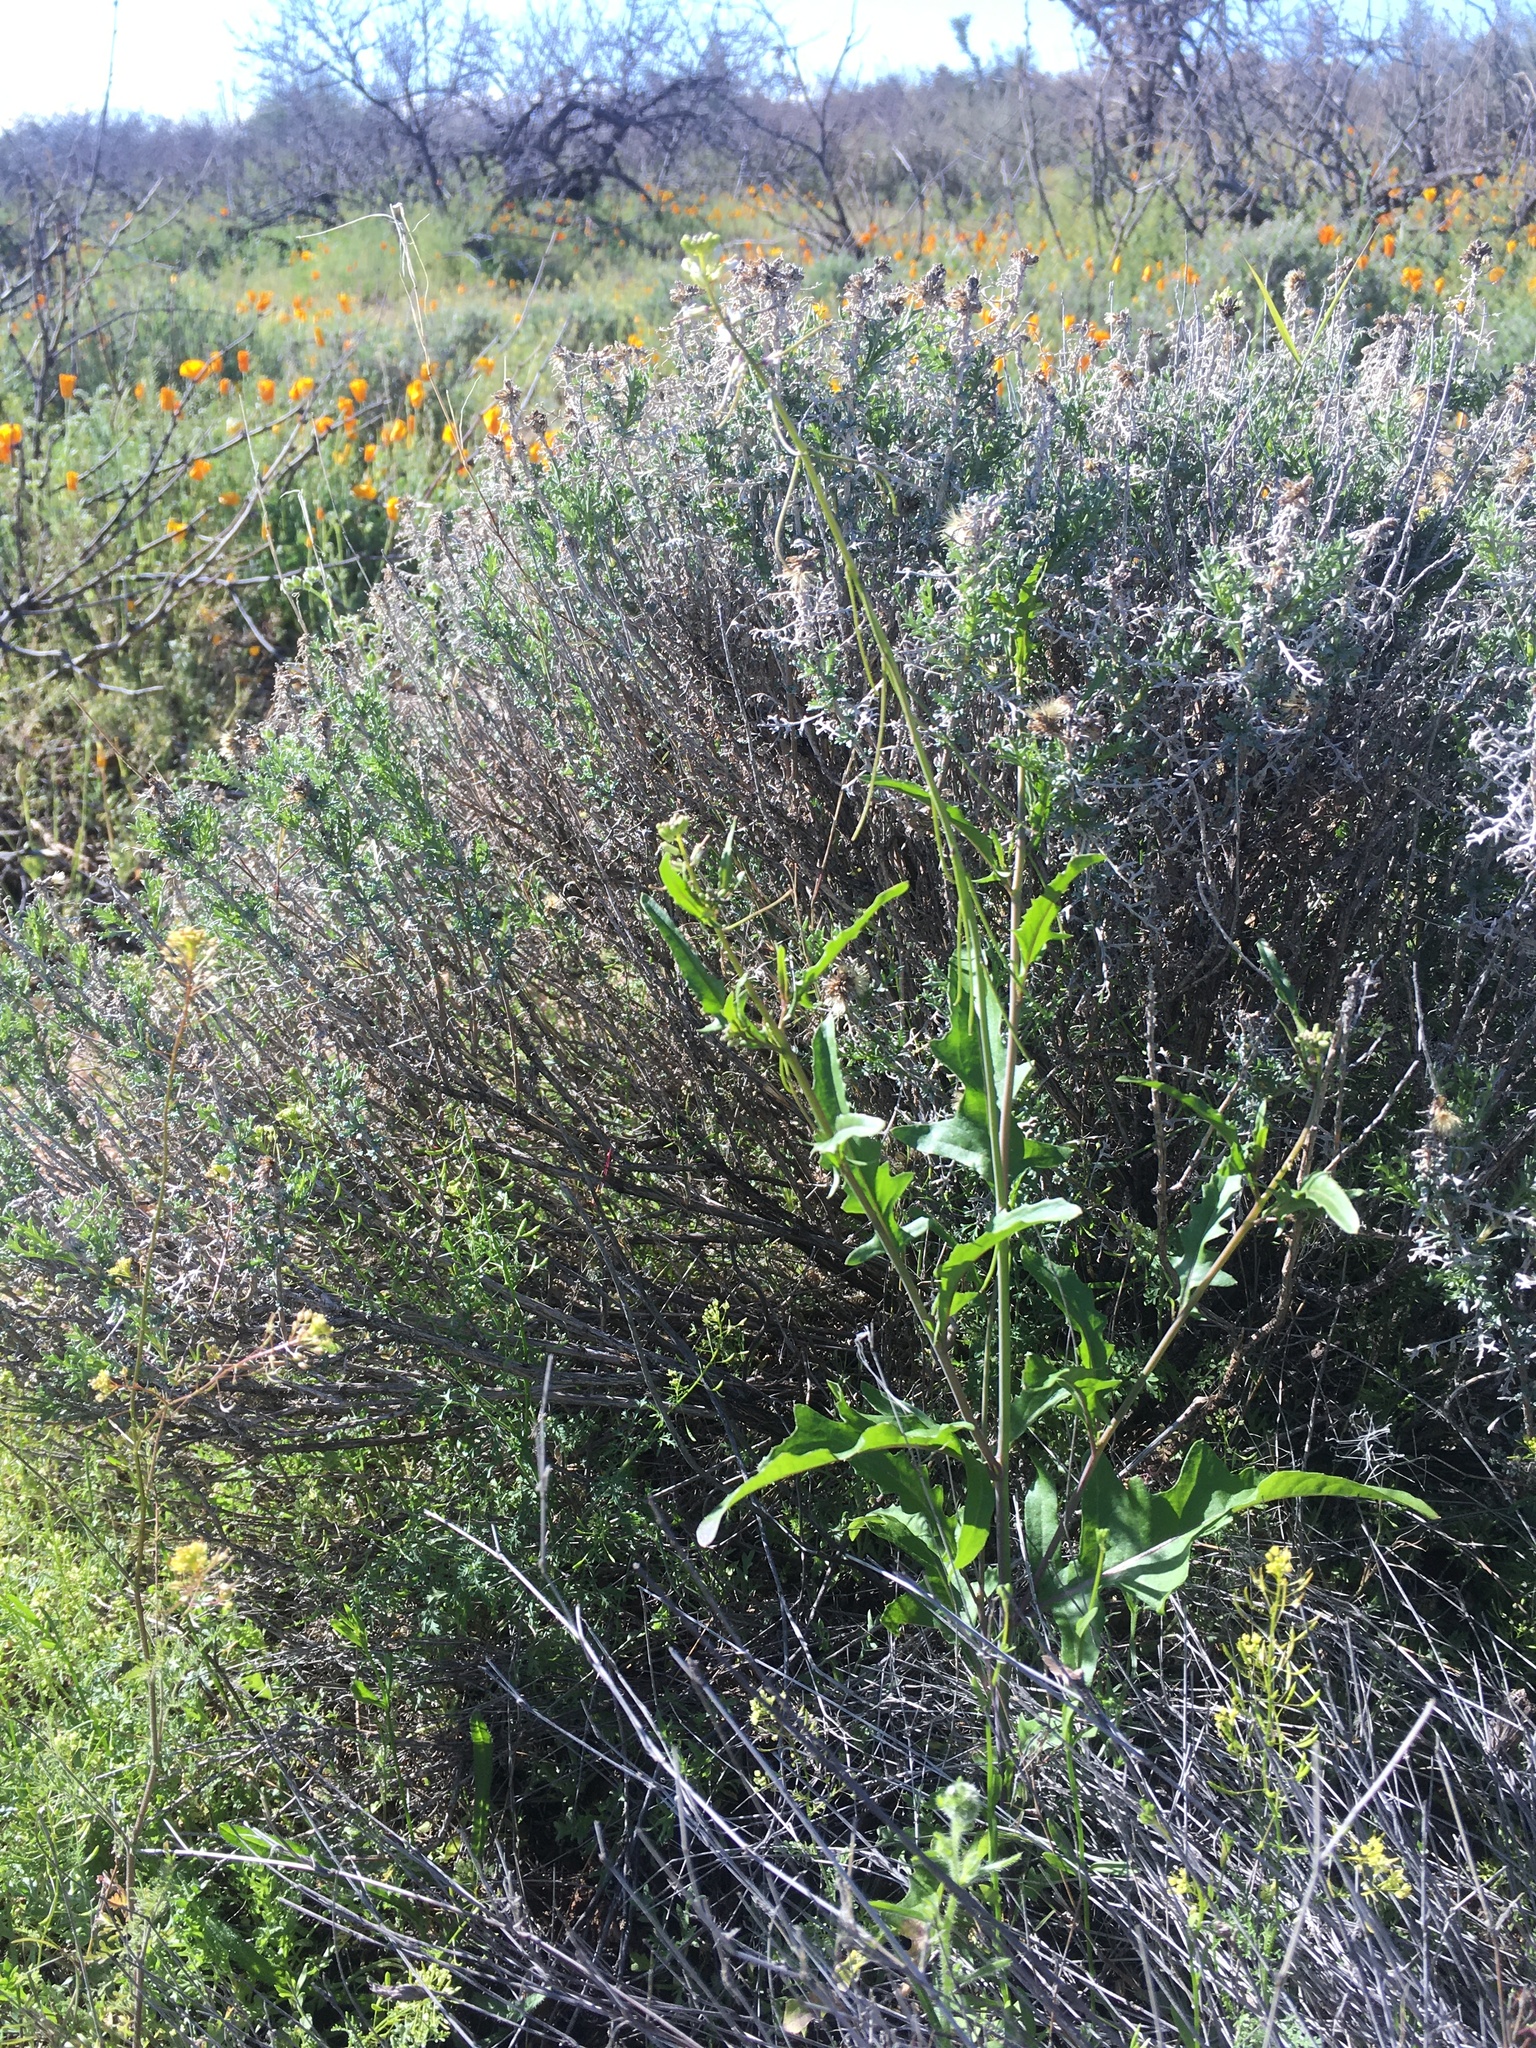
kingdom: Plantae
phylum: Tracheophyta
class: Magnoliopsida
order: Brassicales
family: Brassicaceae
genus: Streptanthus
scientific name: Streptanthus lasiophyllus
